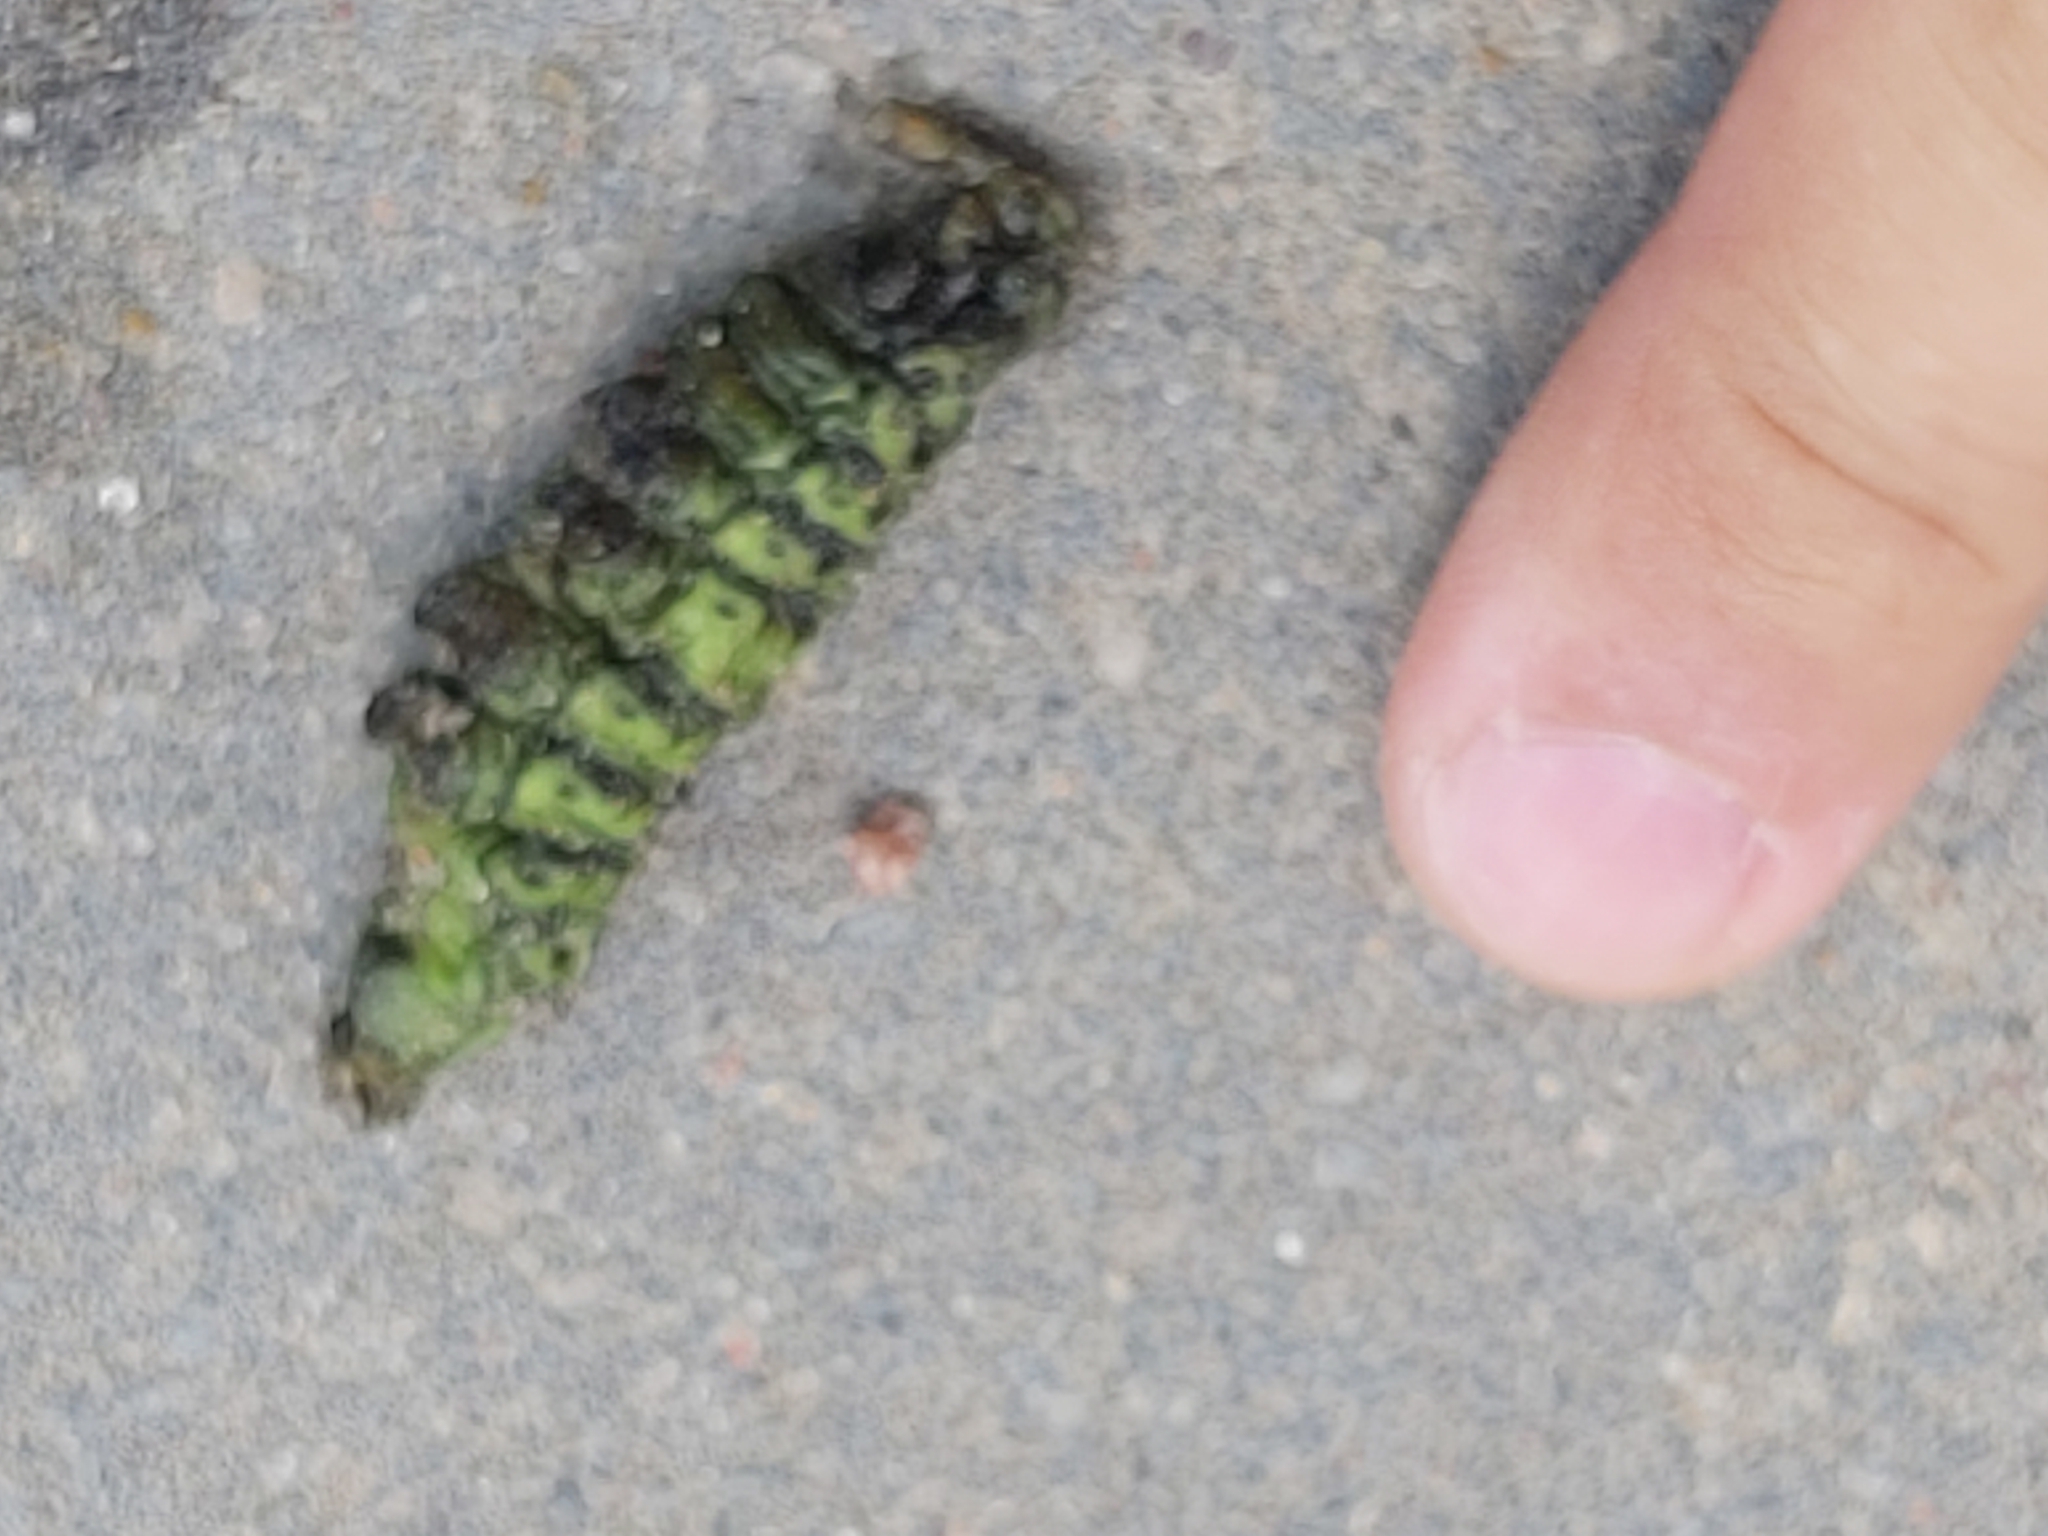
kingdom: Animalia
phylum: Arthropoda
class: Insecta
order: Lepidoptera
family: Sphingidae
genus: Deilephila
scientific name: Deilephila elpenor
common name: Elephant hawk-moth
